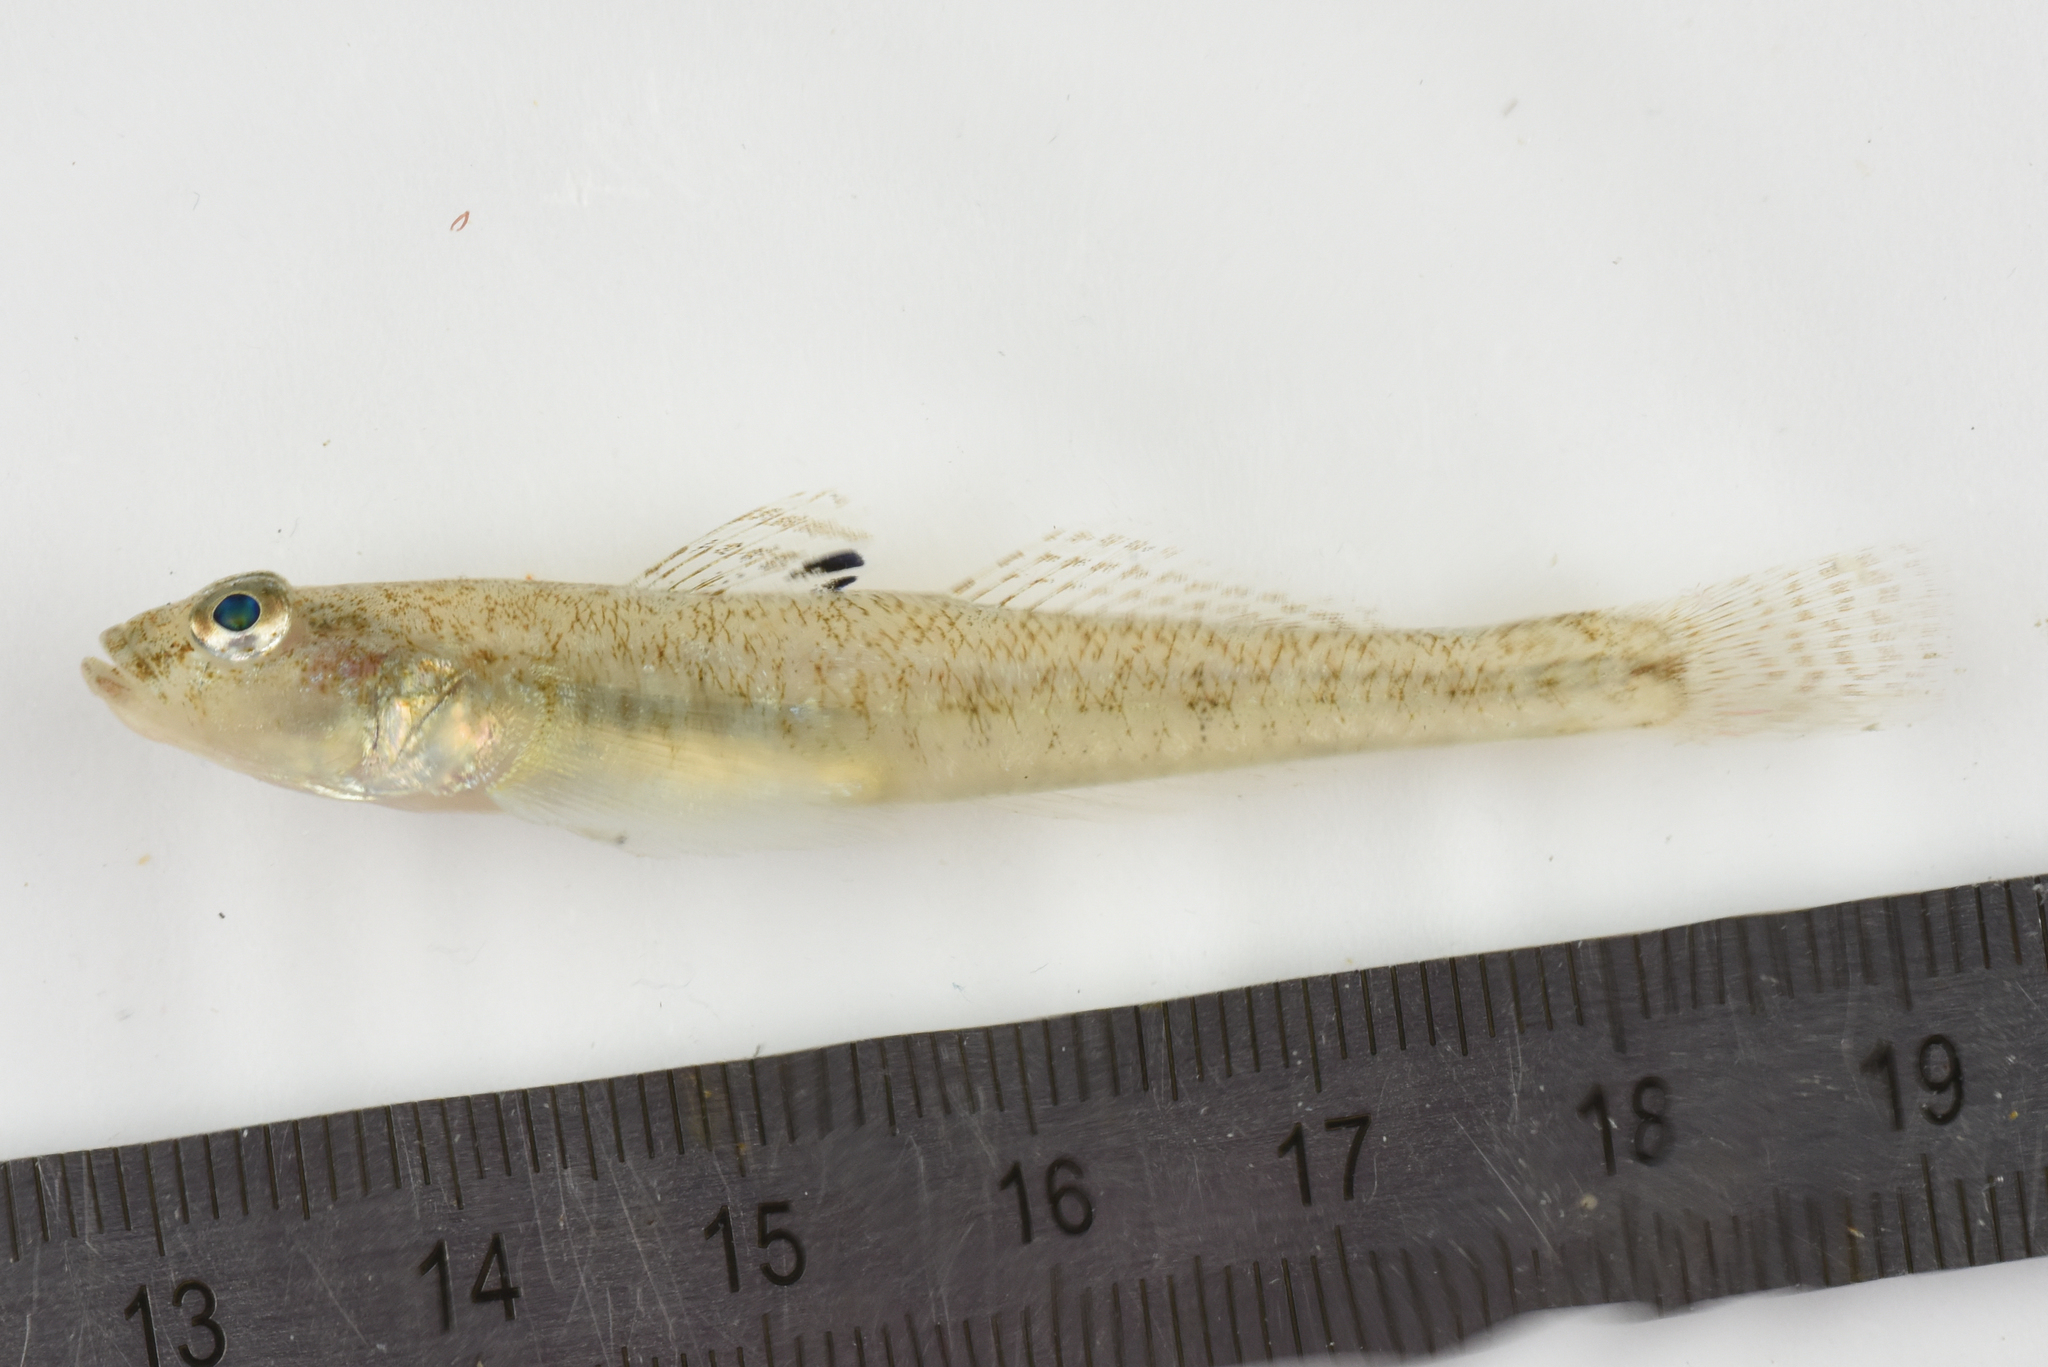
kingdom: Animalia
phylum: Chordata
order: Perciformes
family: Gobiidae
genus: Pomatoschistus
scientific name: Pomatoschistus minutus
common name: Sand goby
